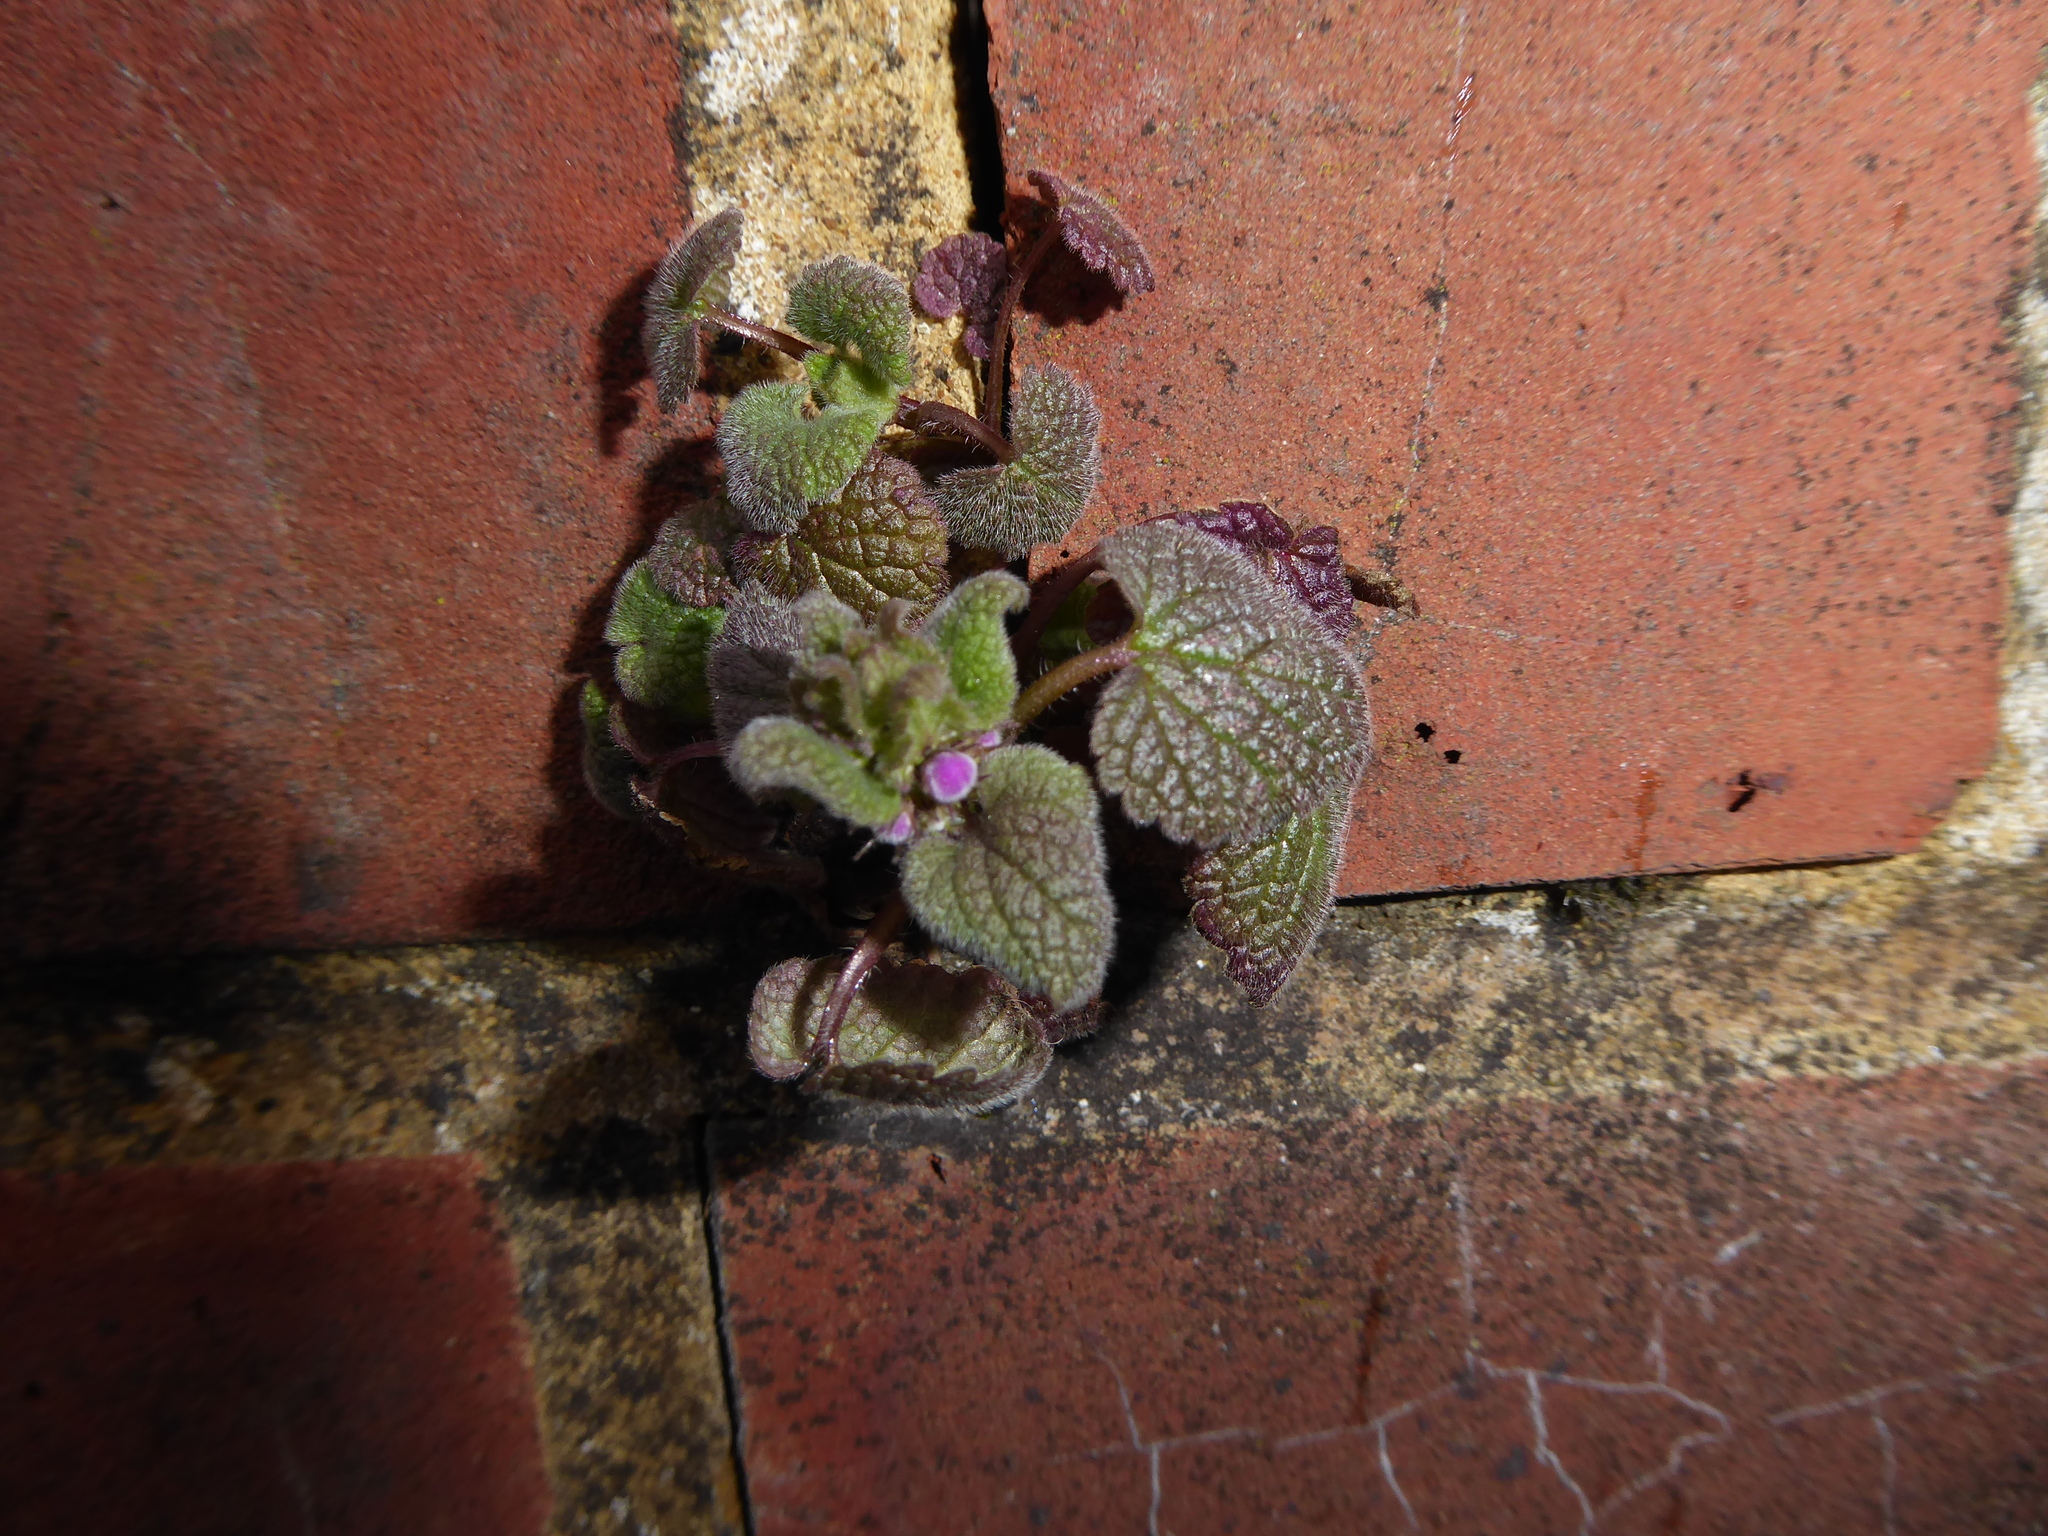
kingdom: Plantae
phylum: Tracheophyta
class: Magnoliopsida
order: Lamiales
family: Lamiaceae
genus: Lamium
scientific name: Lamium purpureum
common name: Red dead-nettle
